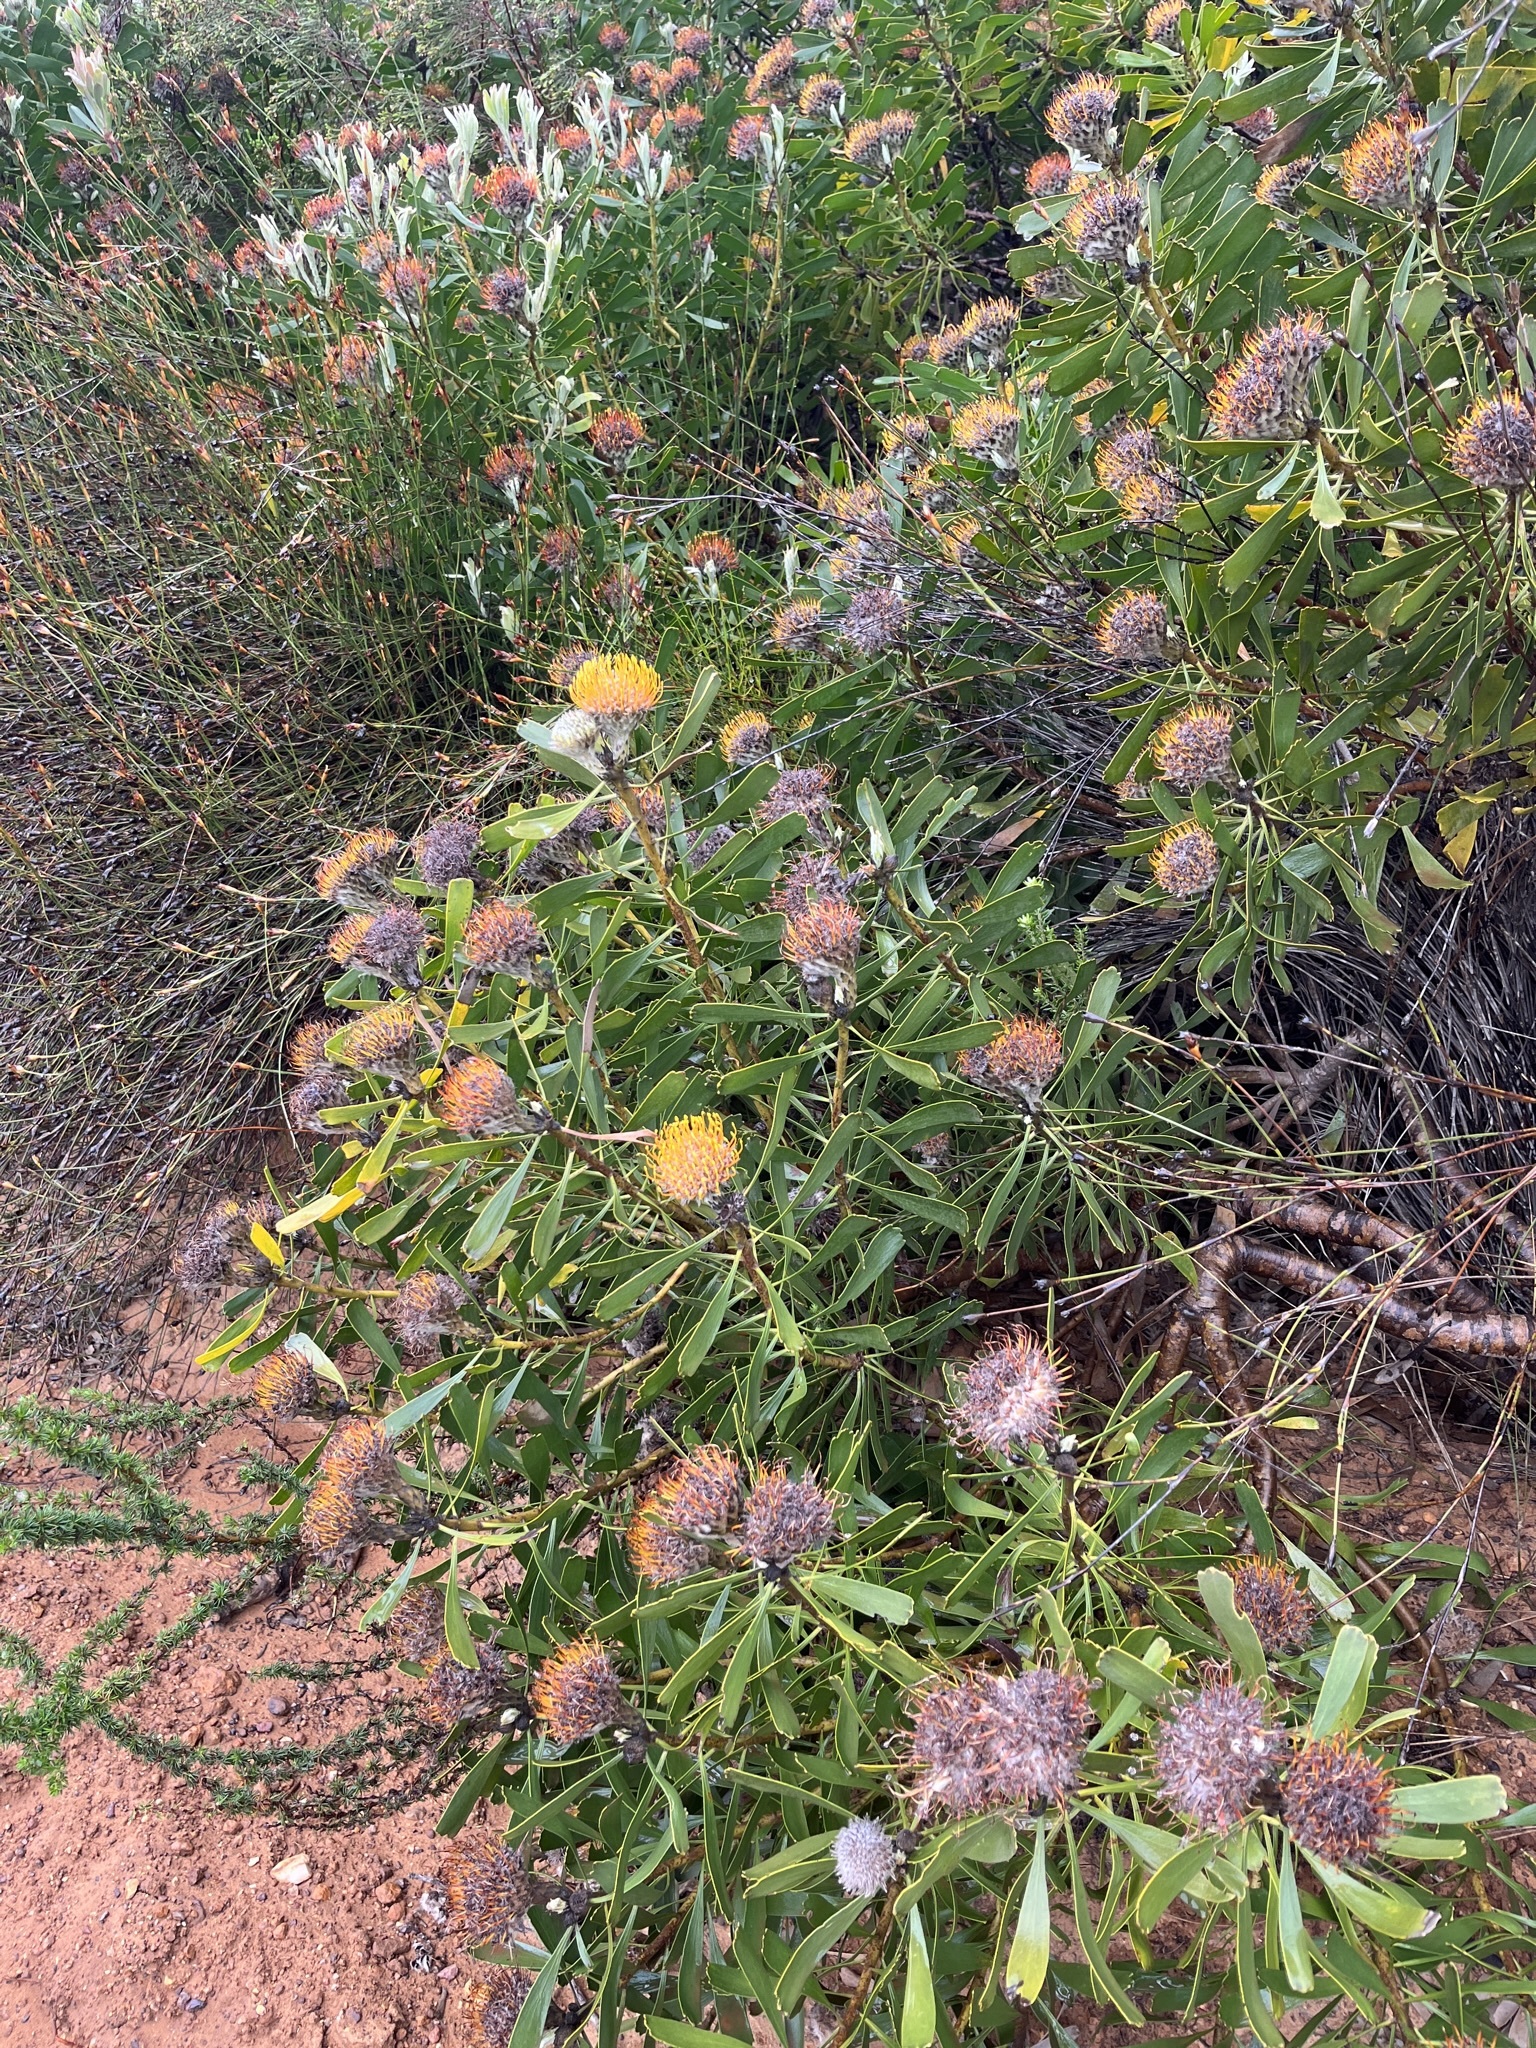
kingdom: Plantae
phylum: Tracheophyta
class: Magnoliopsida
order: Proteales
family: Proteaceae
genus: Leucospermum
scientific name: Leucospermum truncatum
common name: Limestone pincushion
